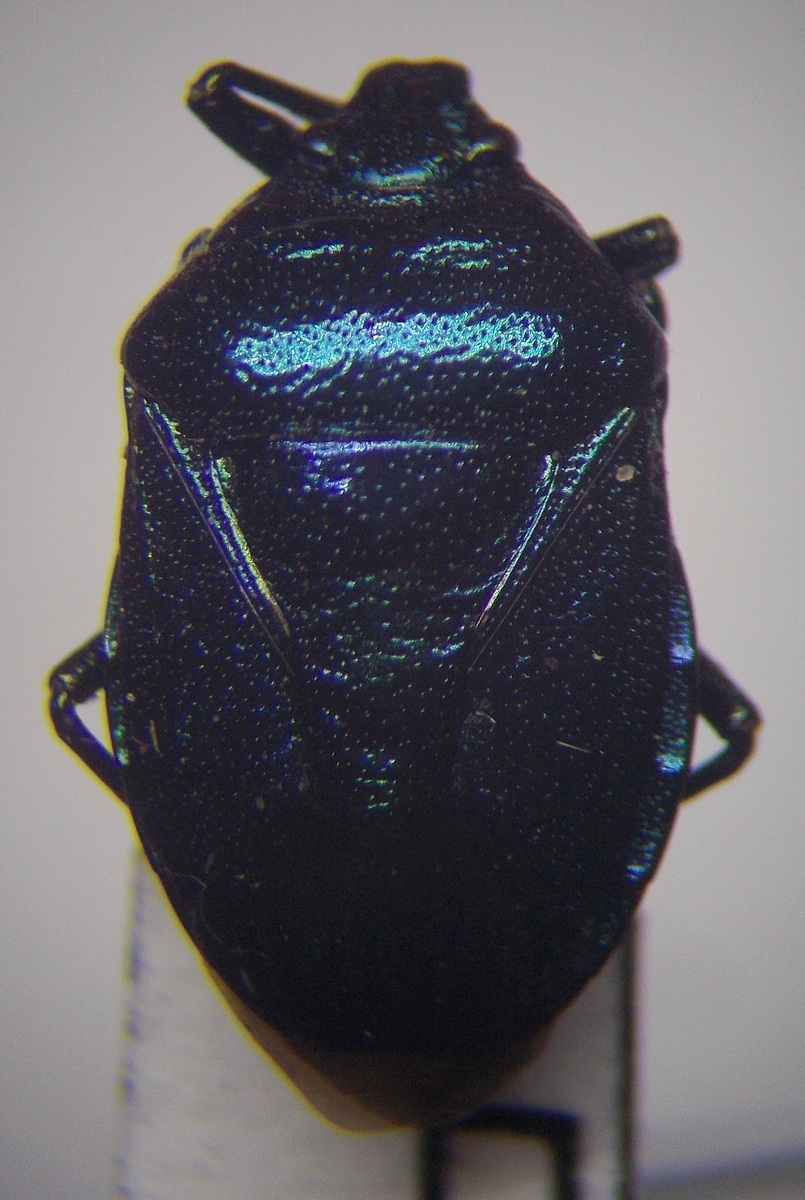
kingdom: Animalia
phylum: Arthropoda
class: Insecta
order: Hemiptera
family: Pentatomidae
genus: Zicrona
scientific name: Zicrona caerulea
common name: Blue shieldbug
